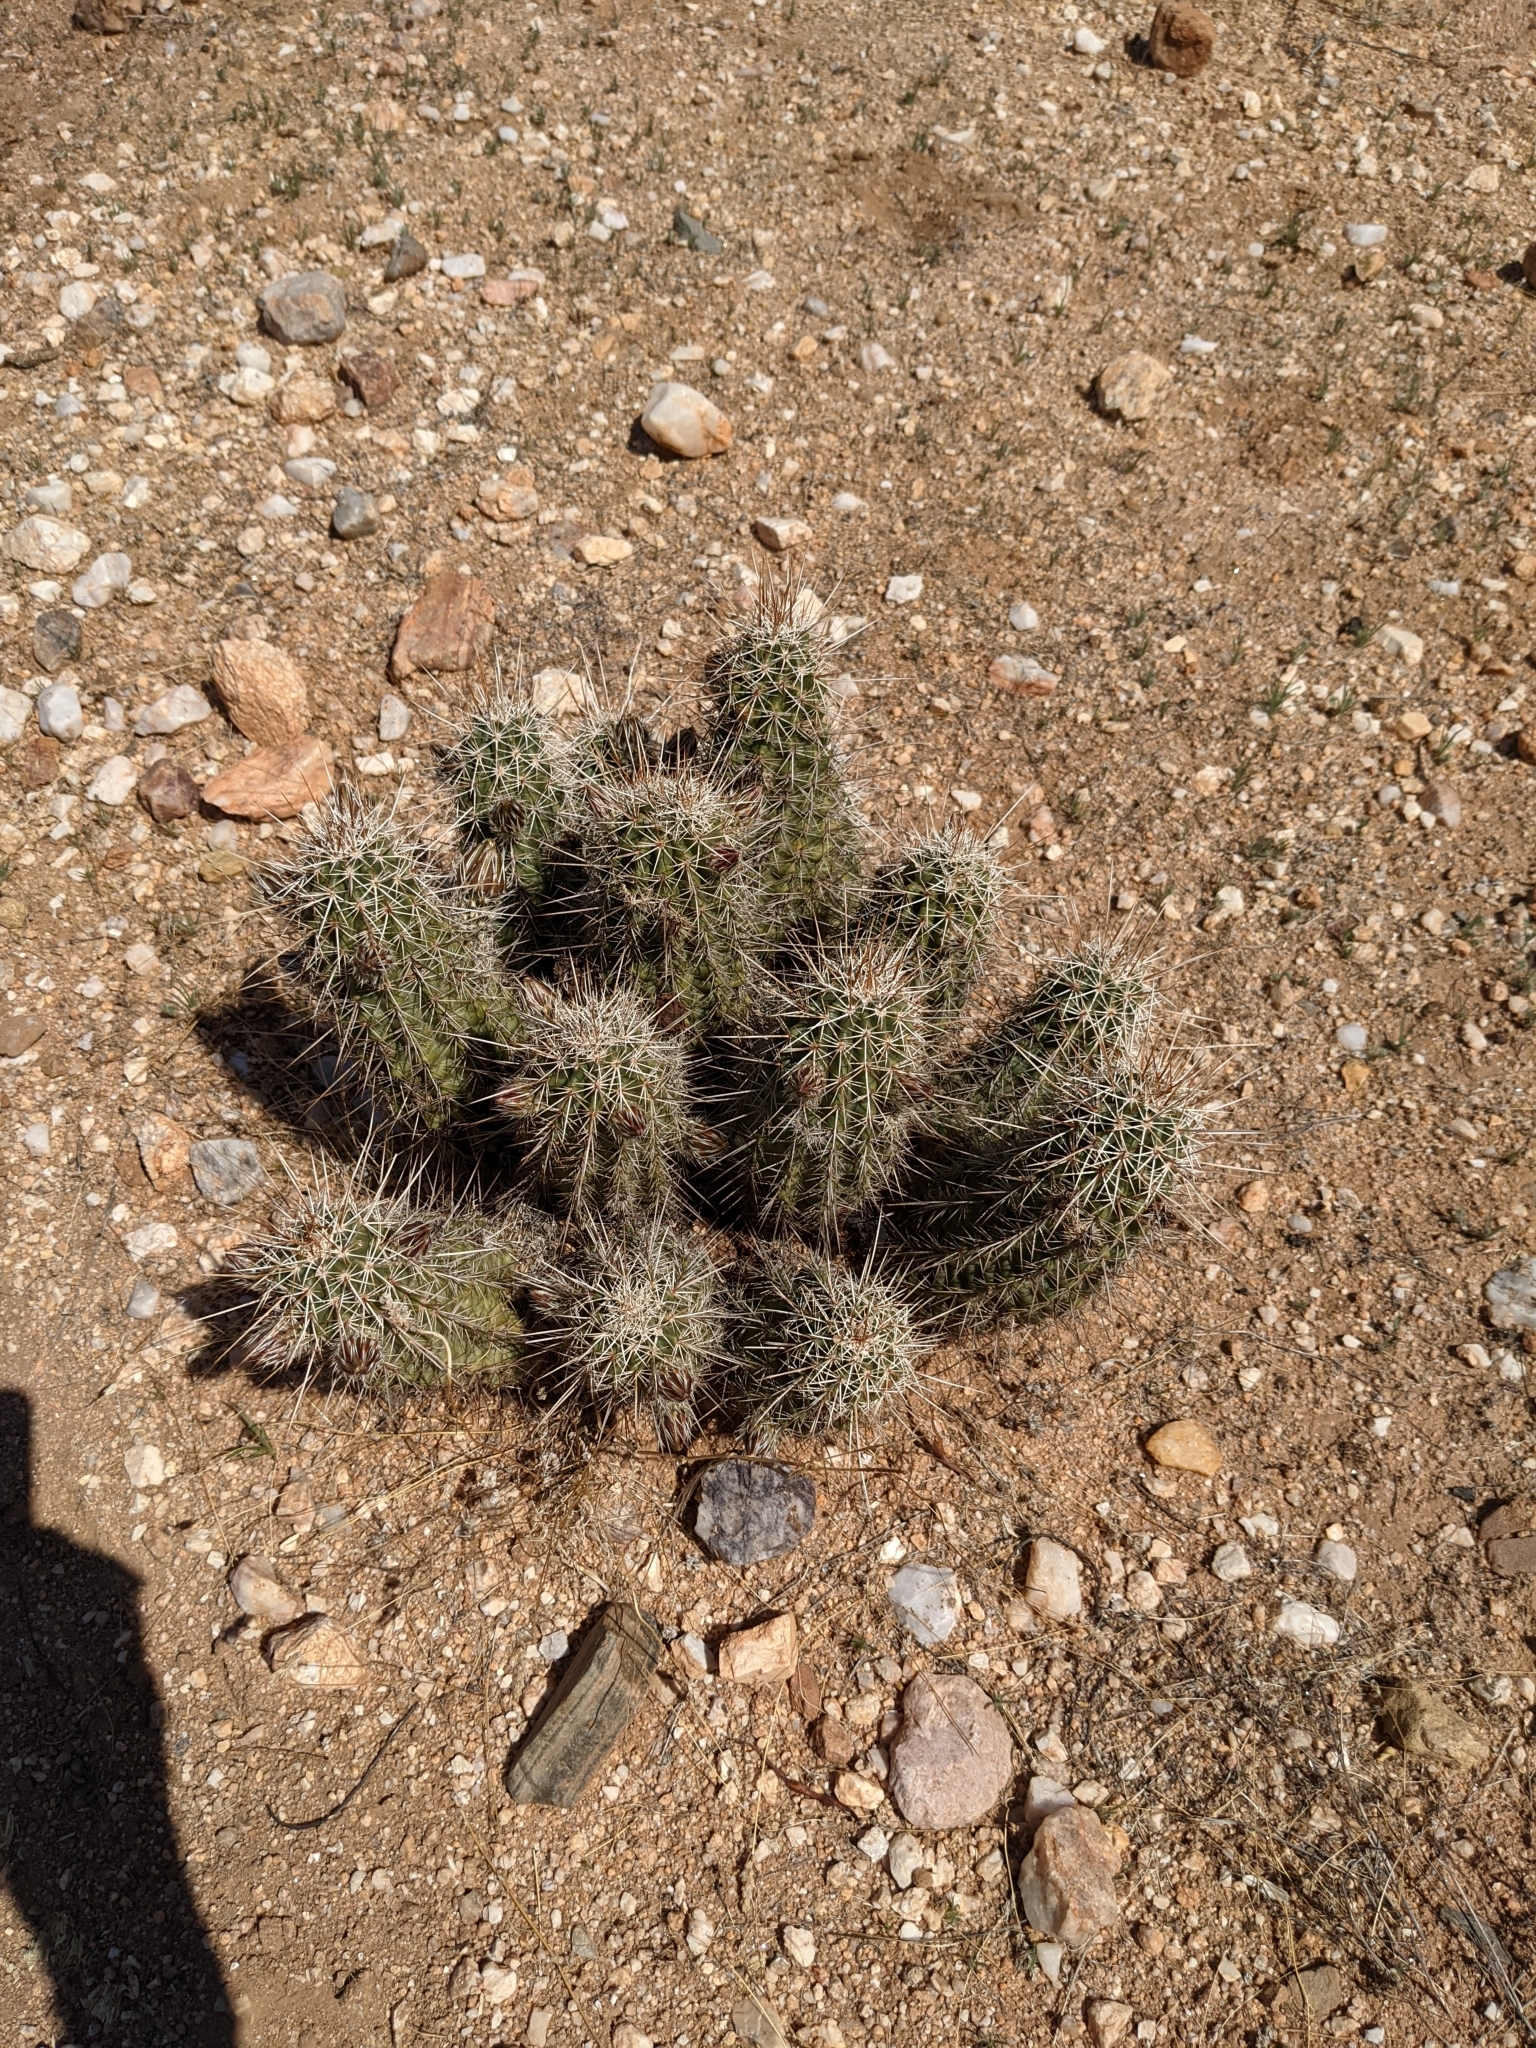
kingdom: Plantae
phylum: Tracheophyta
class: Magnoliopsida
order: Caryophyllales
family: Cactaceae
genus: Echinocereus
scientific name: Echinocereus fasciculatus
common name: Bundle hedgehog
